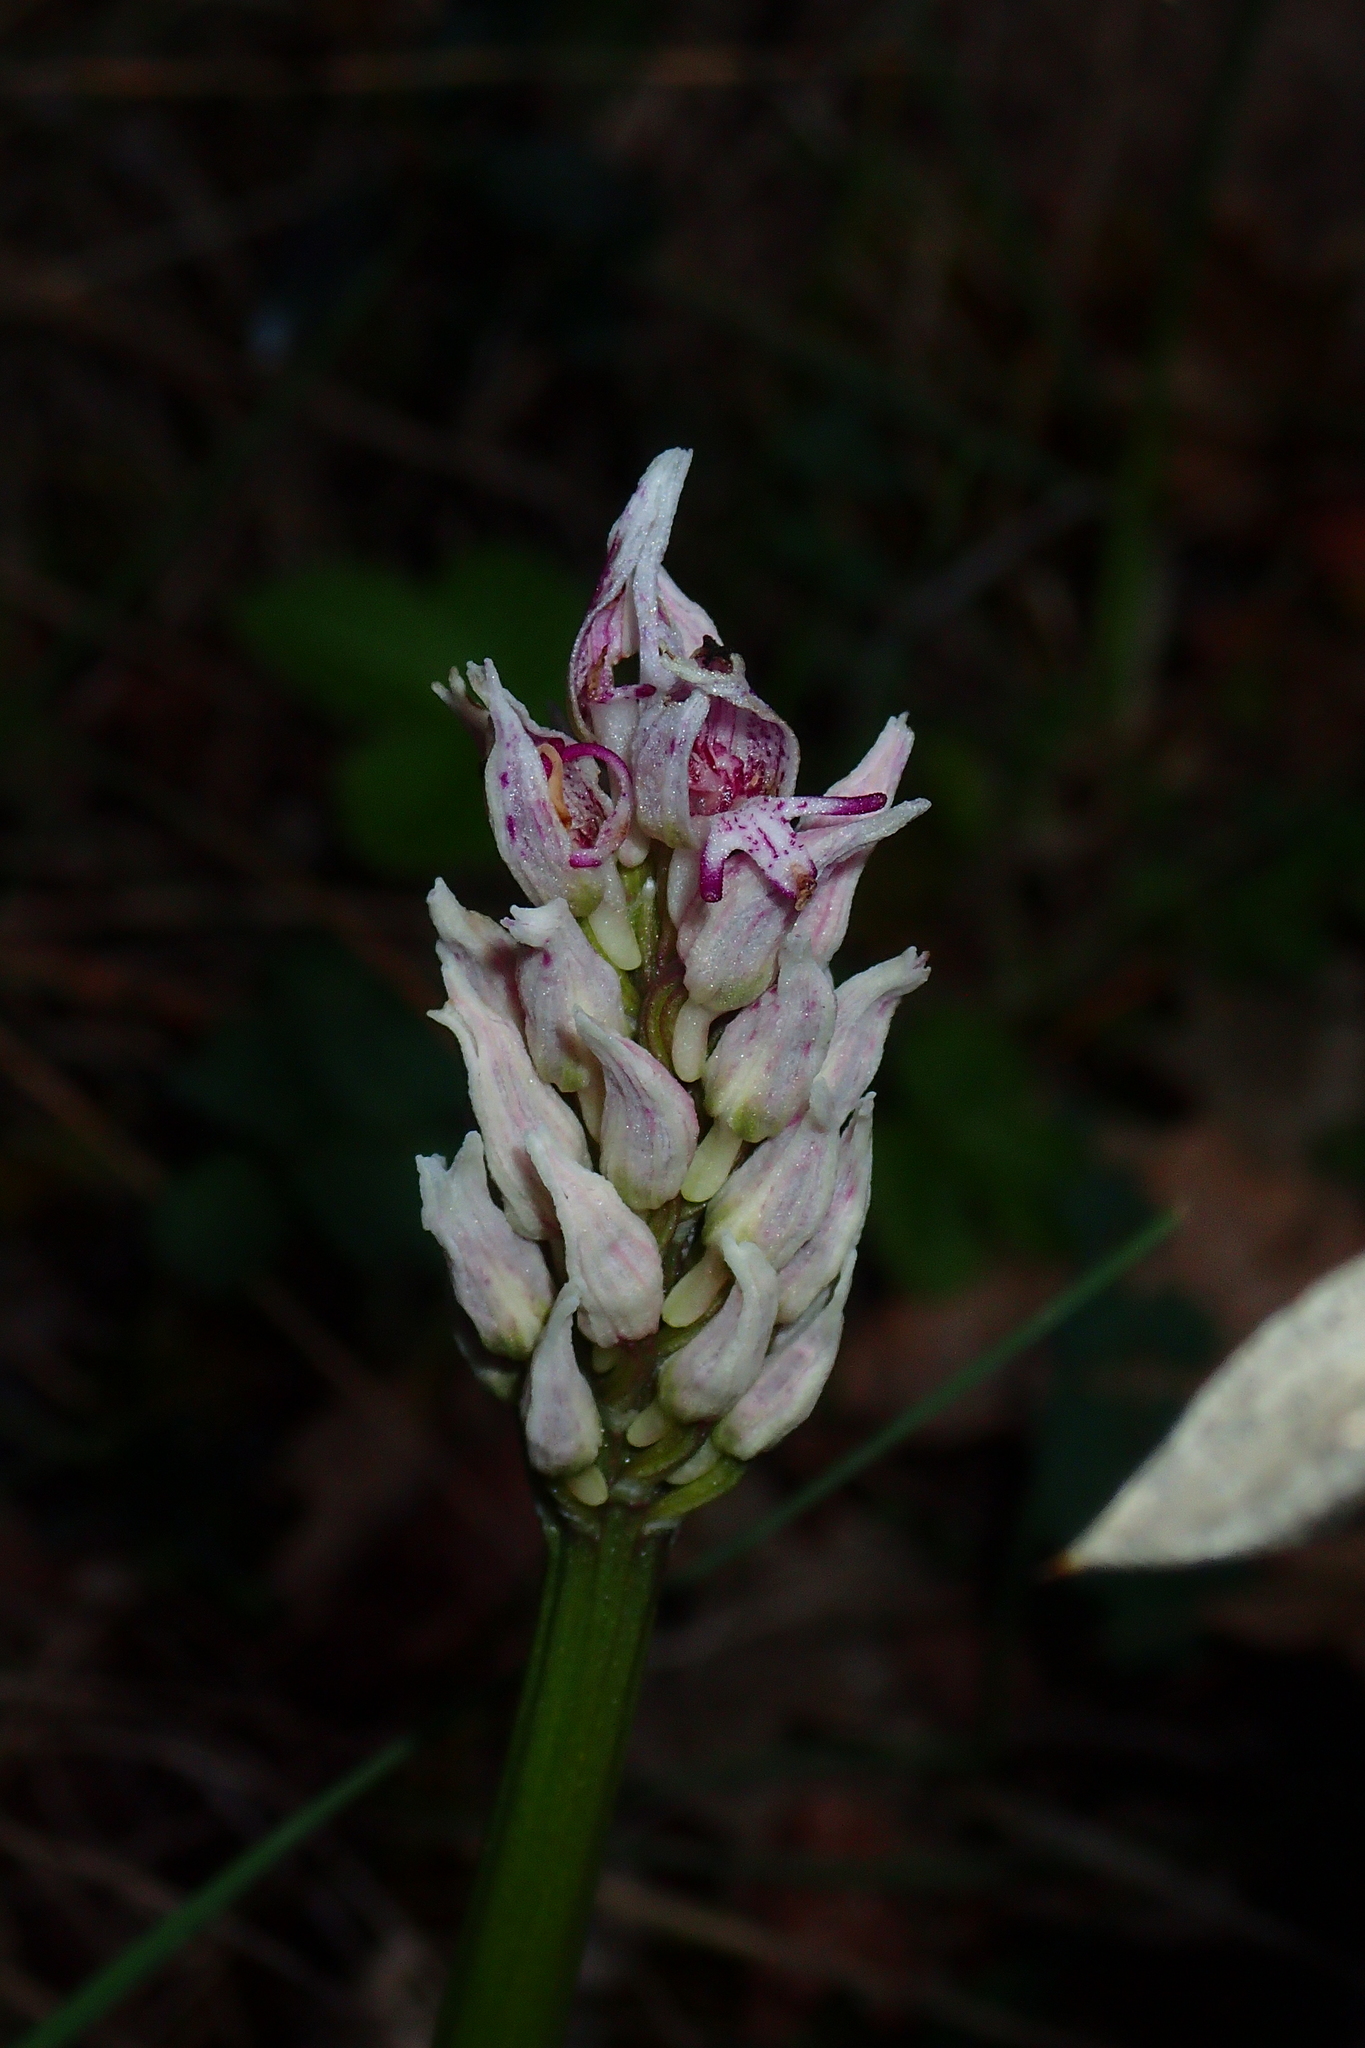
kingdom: Plantae
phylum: Tracheophyta
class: Liliopsida
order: Asparagales
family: Orchidaceae
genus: Orchis
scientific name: Orchis simia
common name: Monkey orchid
